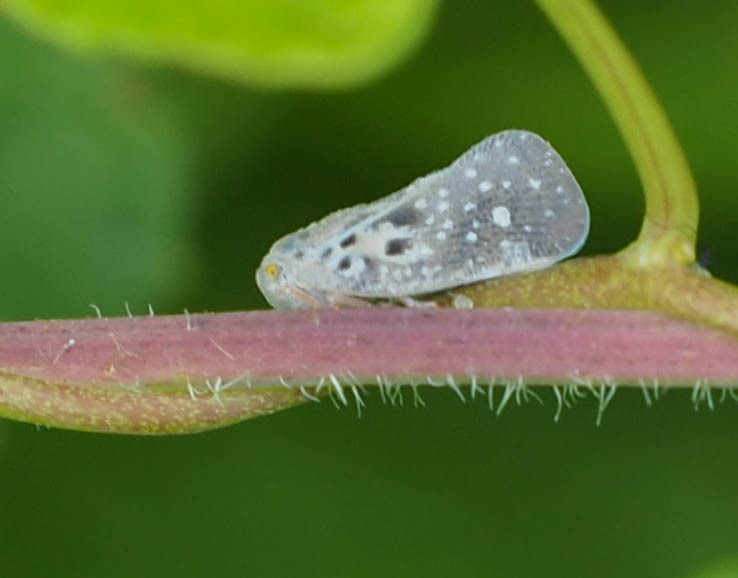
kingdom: Animalia
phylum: Arthropoda
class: Insecta
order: Hemiptera
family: Flatidae
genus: Metcalfa
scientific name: Metcalfa pruinosa
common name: Citrus flatid planthopper
